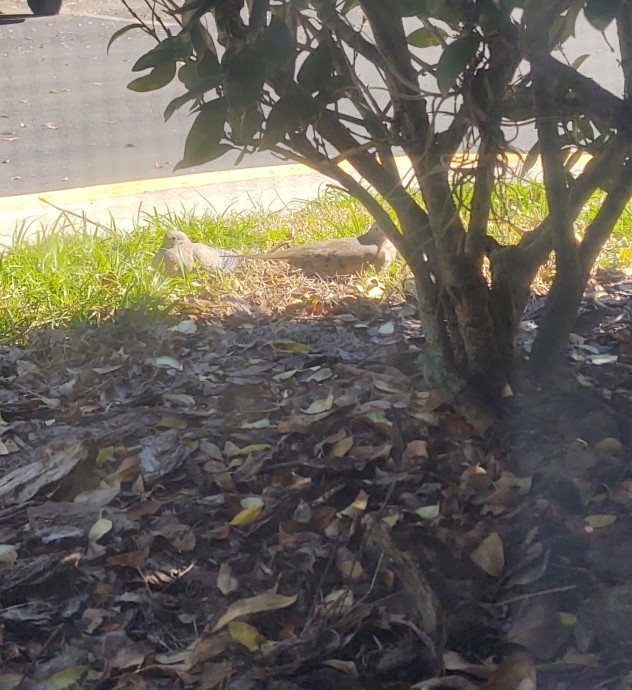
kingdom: Animalia
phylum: Chordata
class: Aves
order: Columbiformes
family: Columbidae
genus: Zenaida
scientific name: Zenaida macroura
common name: Mourning dove
